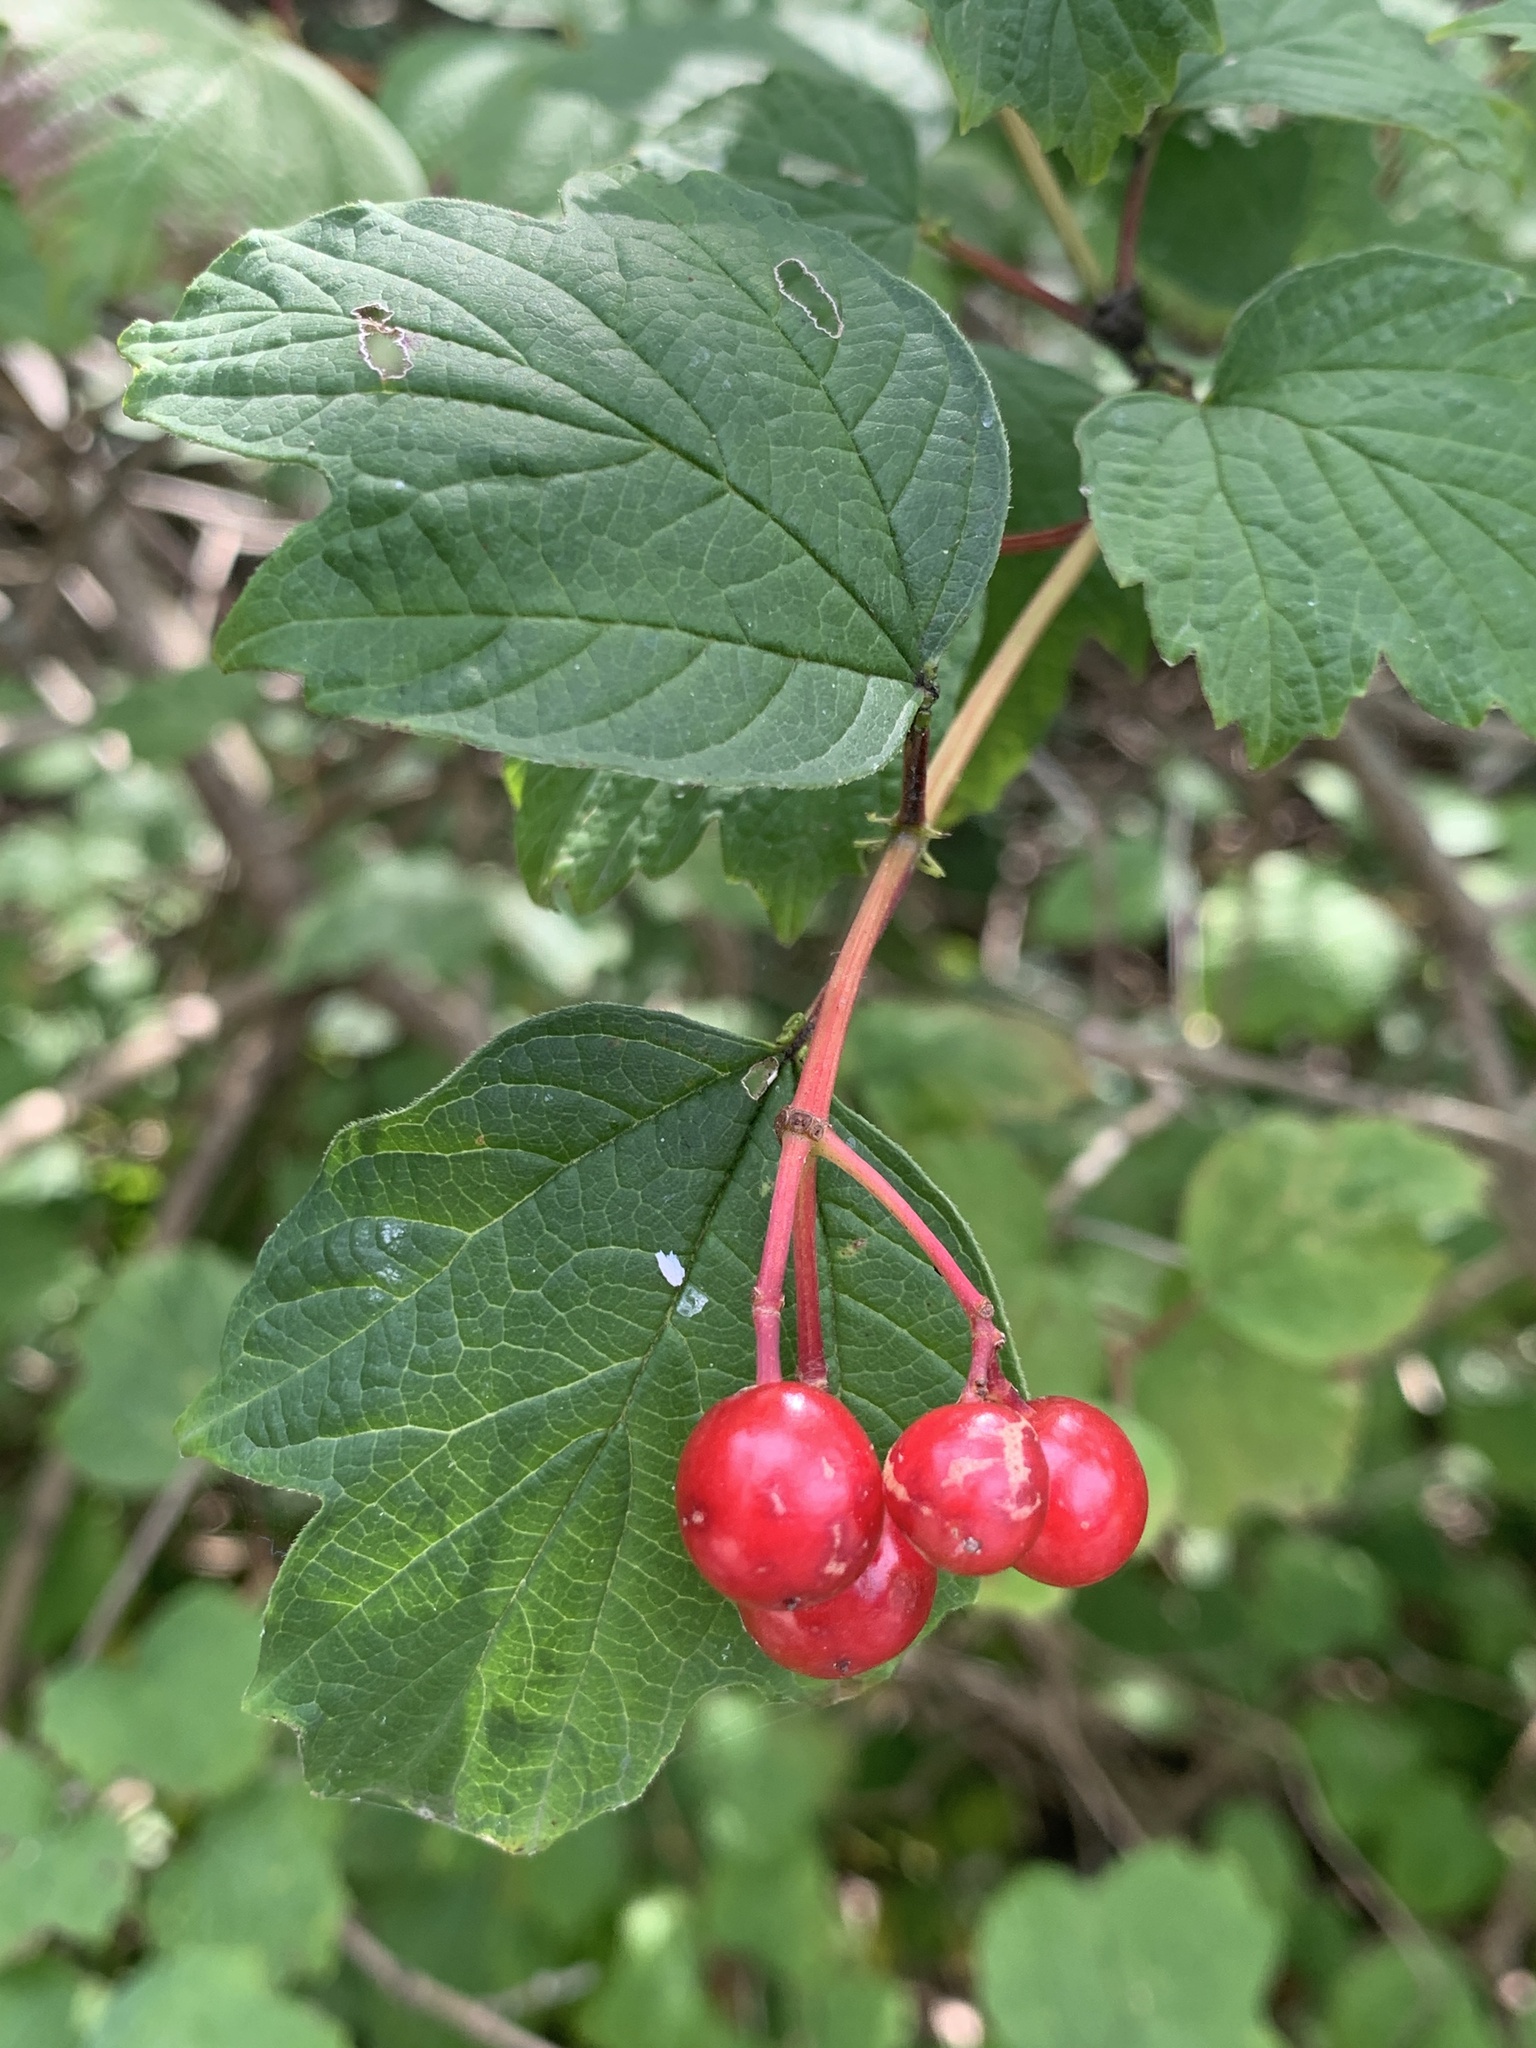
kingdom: Plantae
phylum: Tracheophyta
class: Magnoliopsida
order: Dipsacales
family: Viburnaceae
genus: Viburnum
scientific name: Viburnum opulus
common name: Guelder-rose
